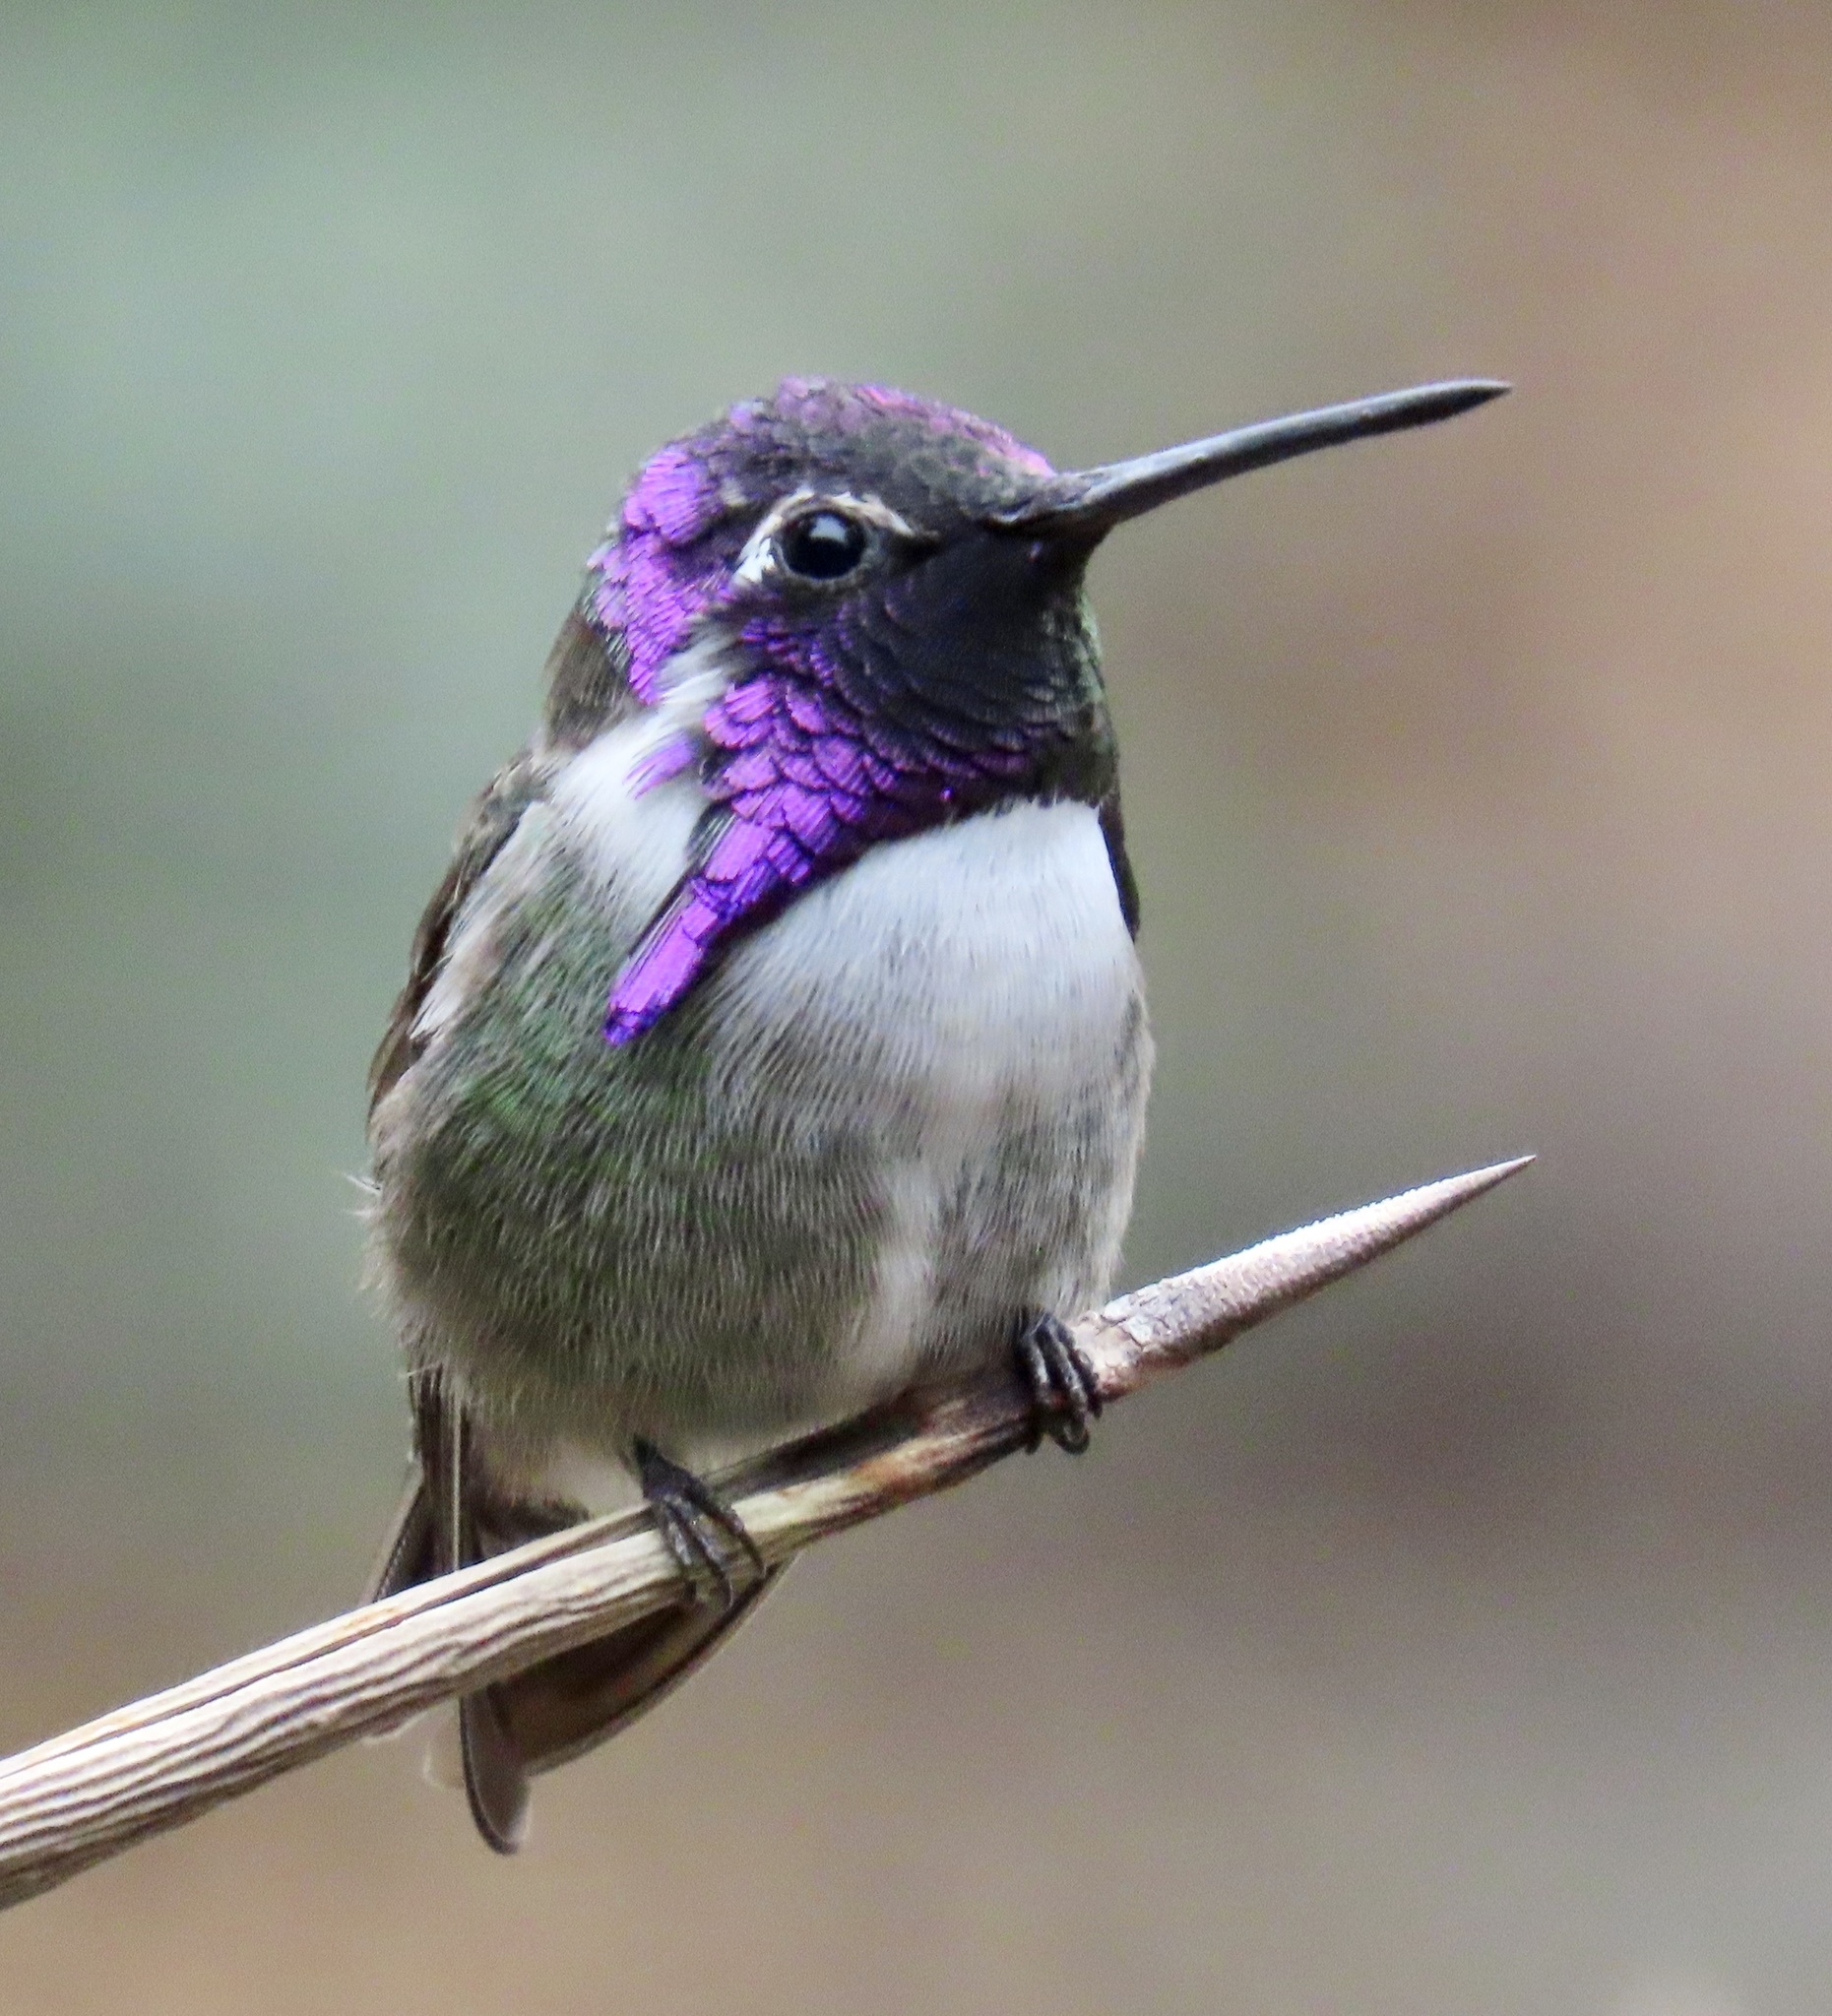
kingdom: Animalia
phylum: Chordata
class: Aves
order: Apodiformes
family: Trochilidae
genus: Calypte
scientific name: Calypte costae
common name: Costa's hummingbird
